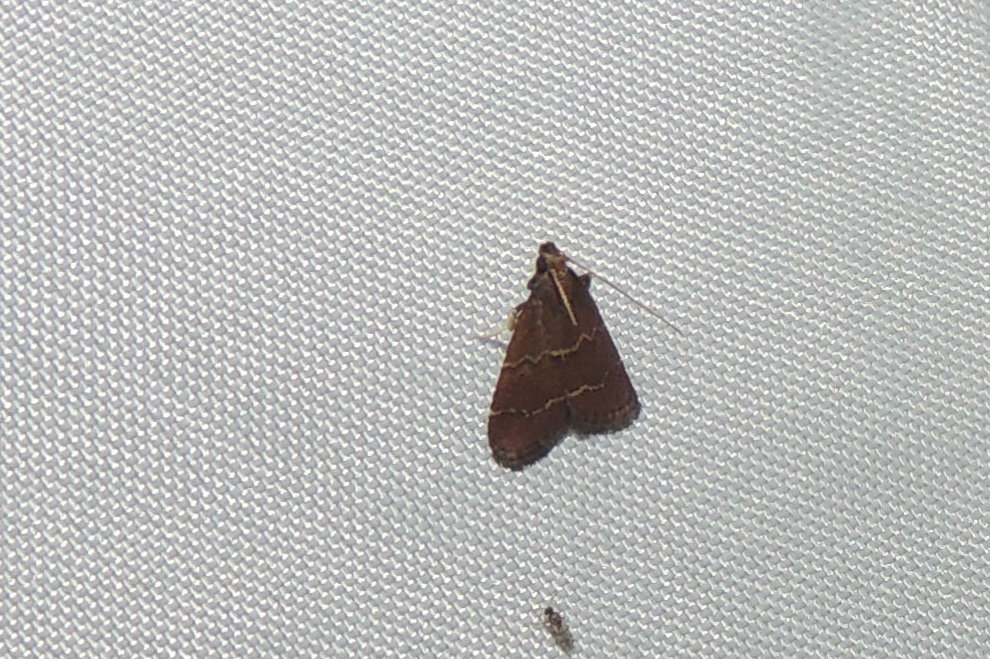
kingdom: Animalia
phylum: Arthropoda
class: Insecta
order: Lepidoptera
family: Pyralidae
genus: Arta
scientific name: Arta
